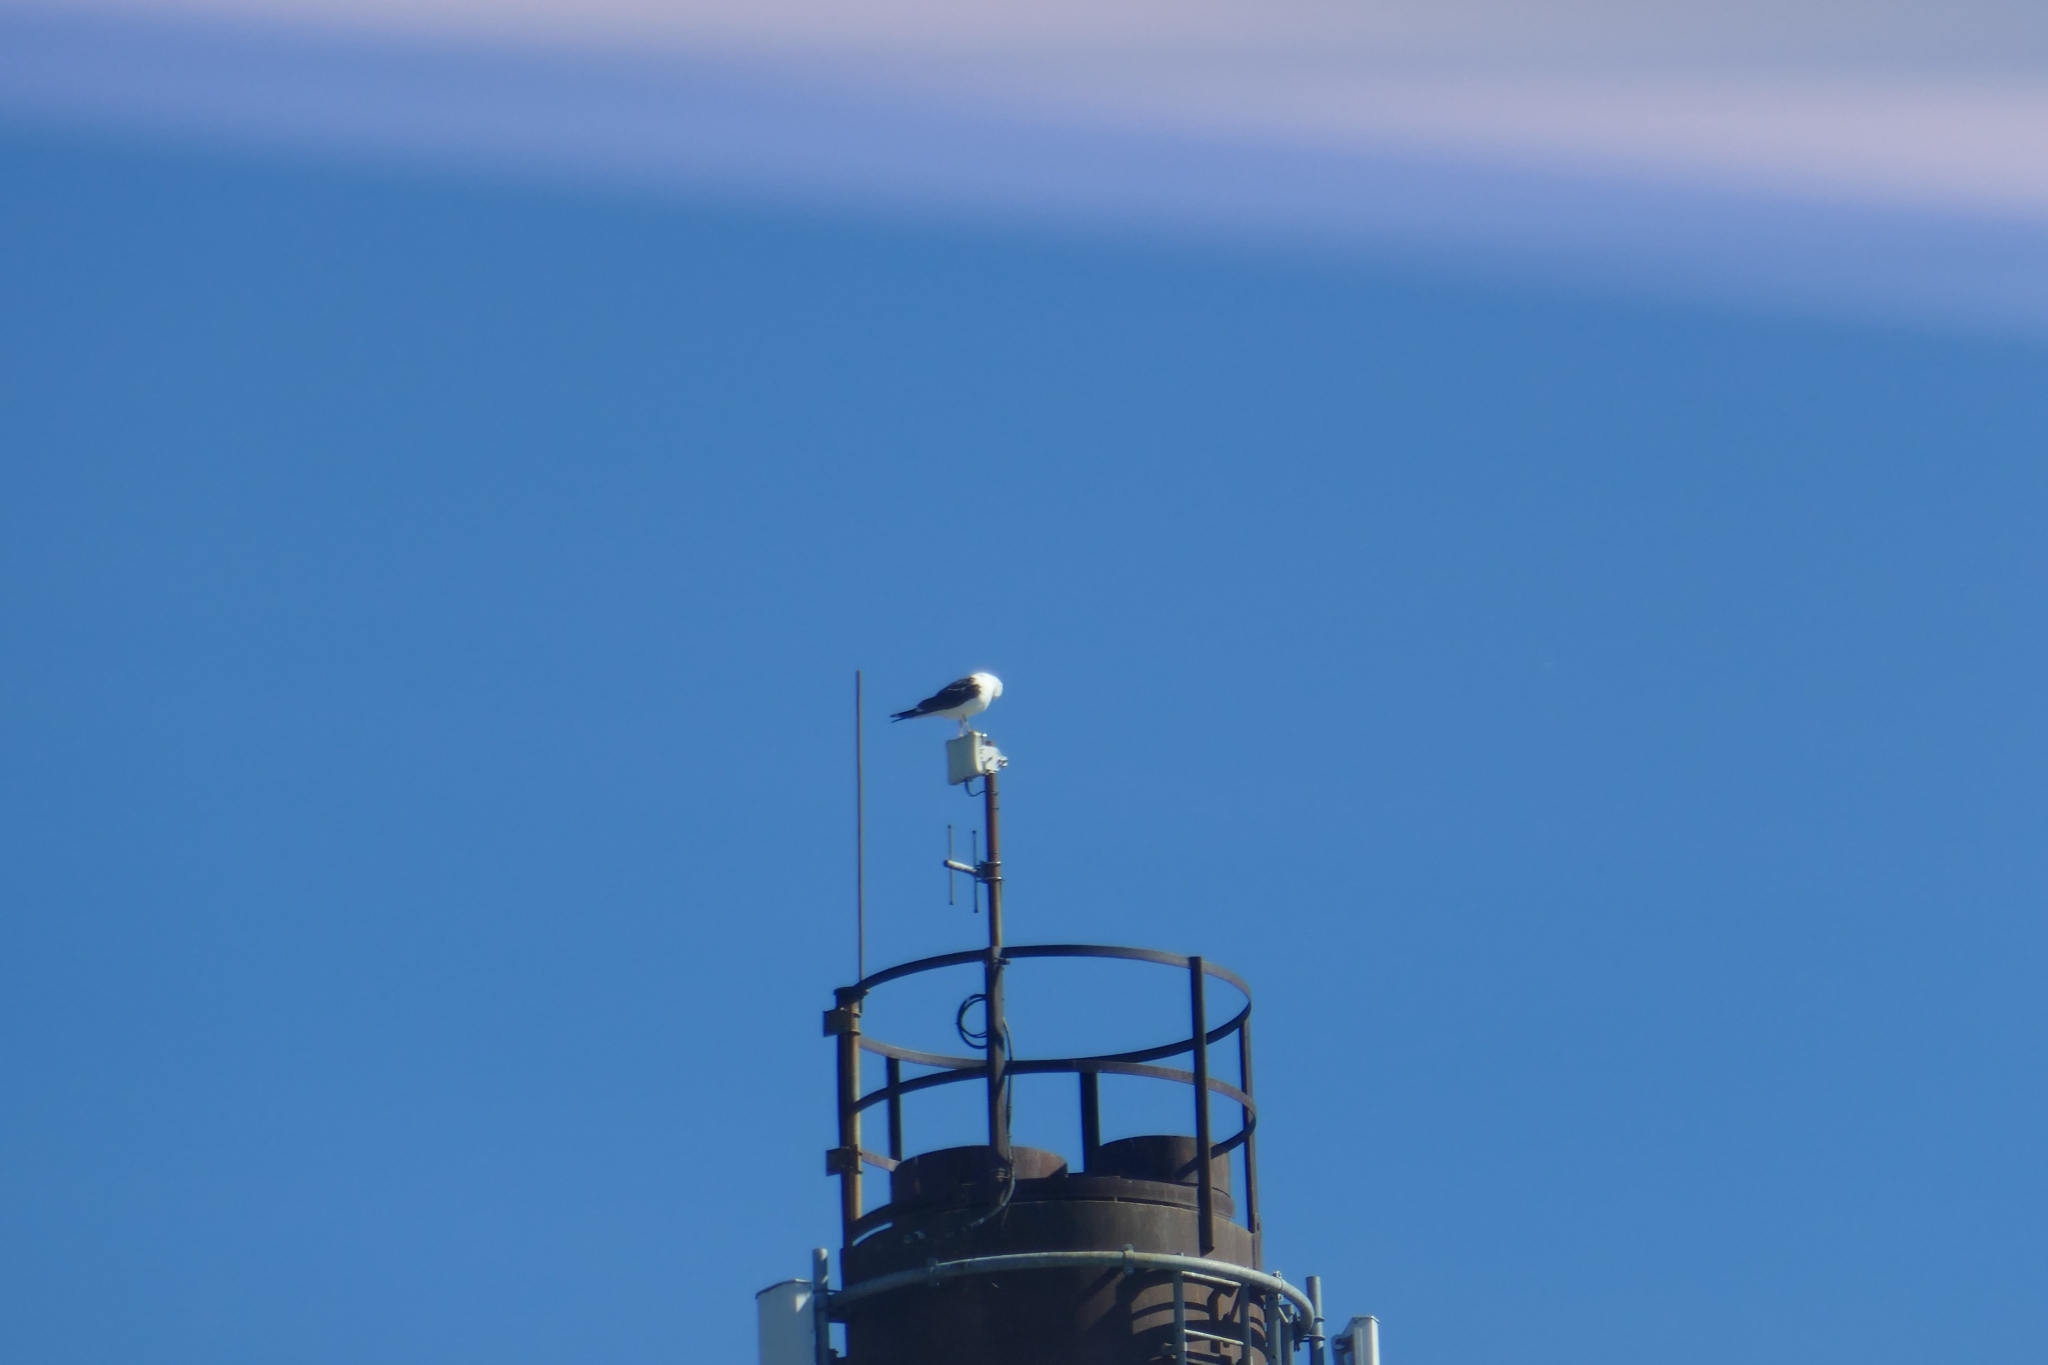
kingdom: Animalia
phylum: Chordata
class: Aves
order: Charadriiformes
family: Laridae
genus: Larus
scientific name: Larus fuscus
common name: Lesser black-backed gull
